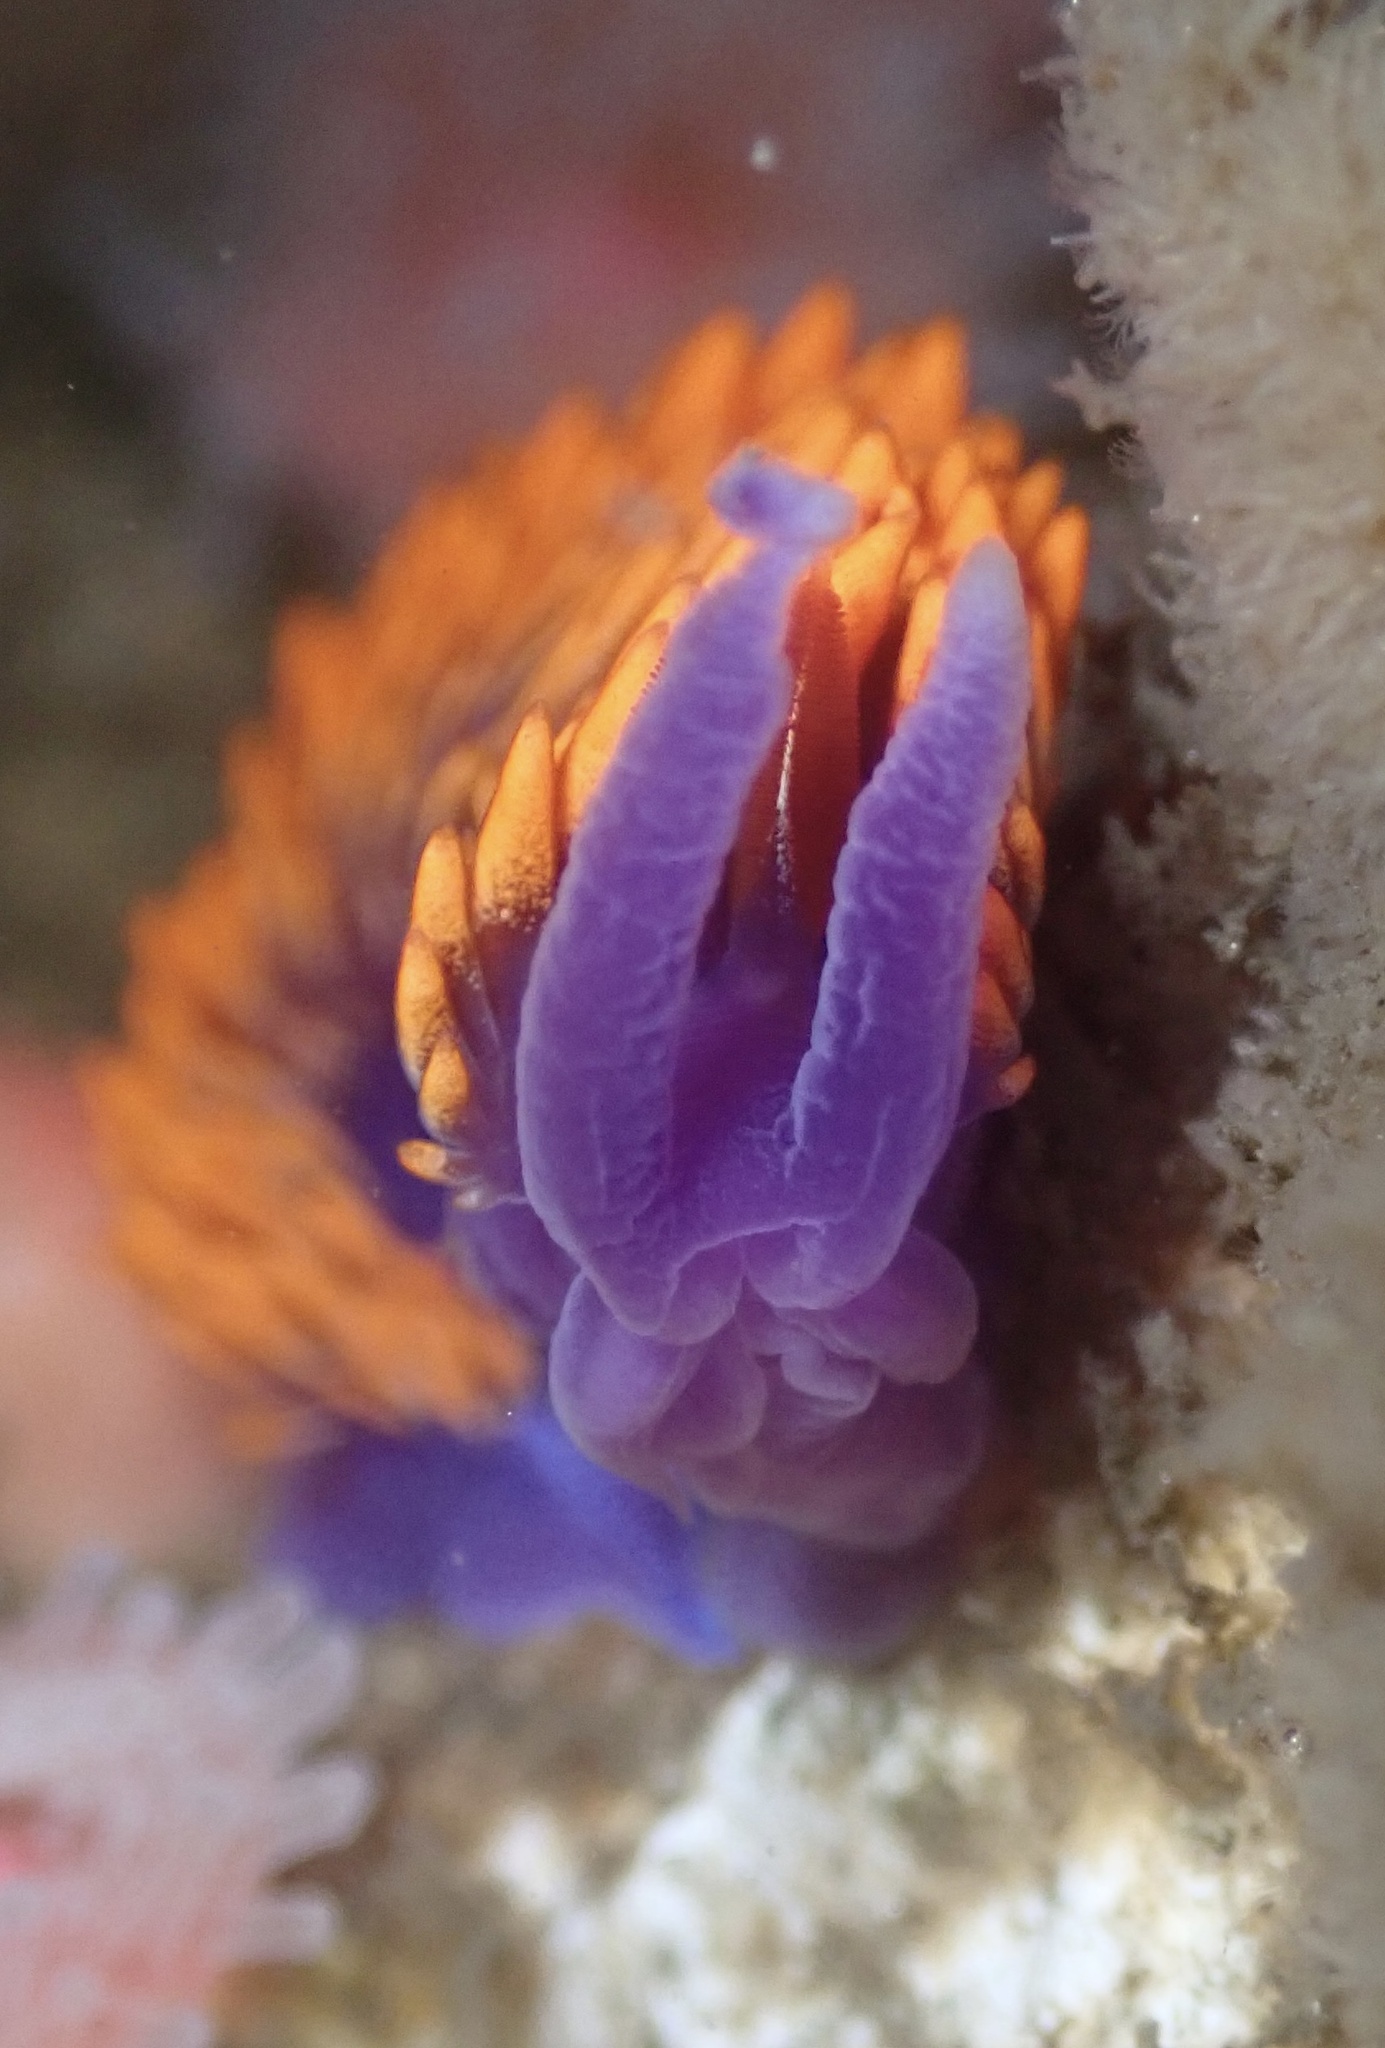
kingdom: Animalia
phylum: Mollusca
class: Gastropoda
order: Nudibranchia
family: Flabellinopsidae
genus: Flabellinopsis
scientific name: Flabellinopsis iodinea
